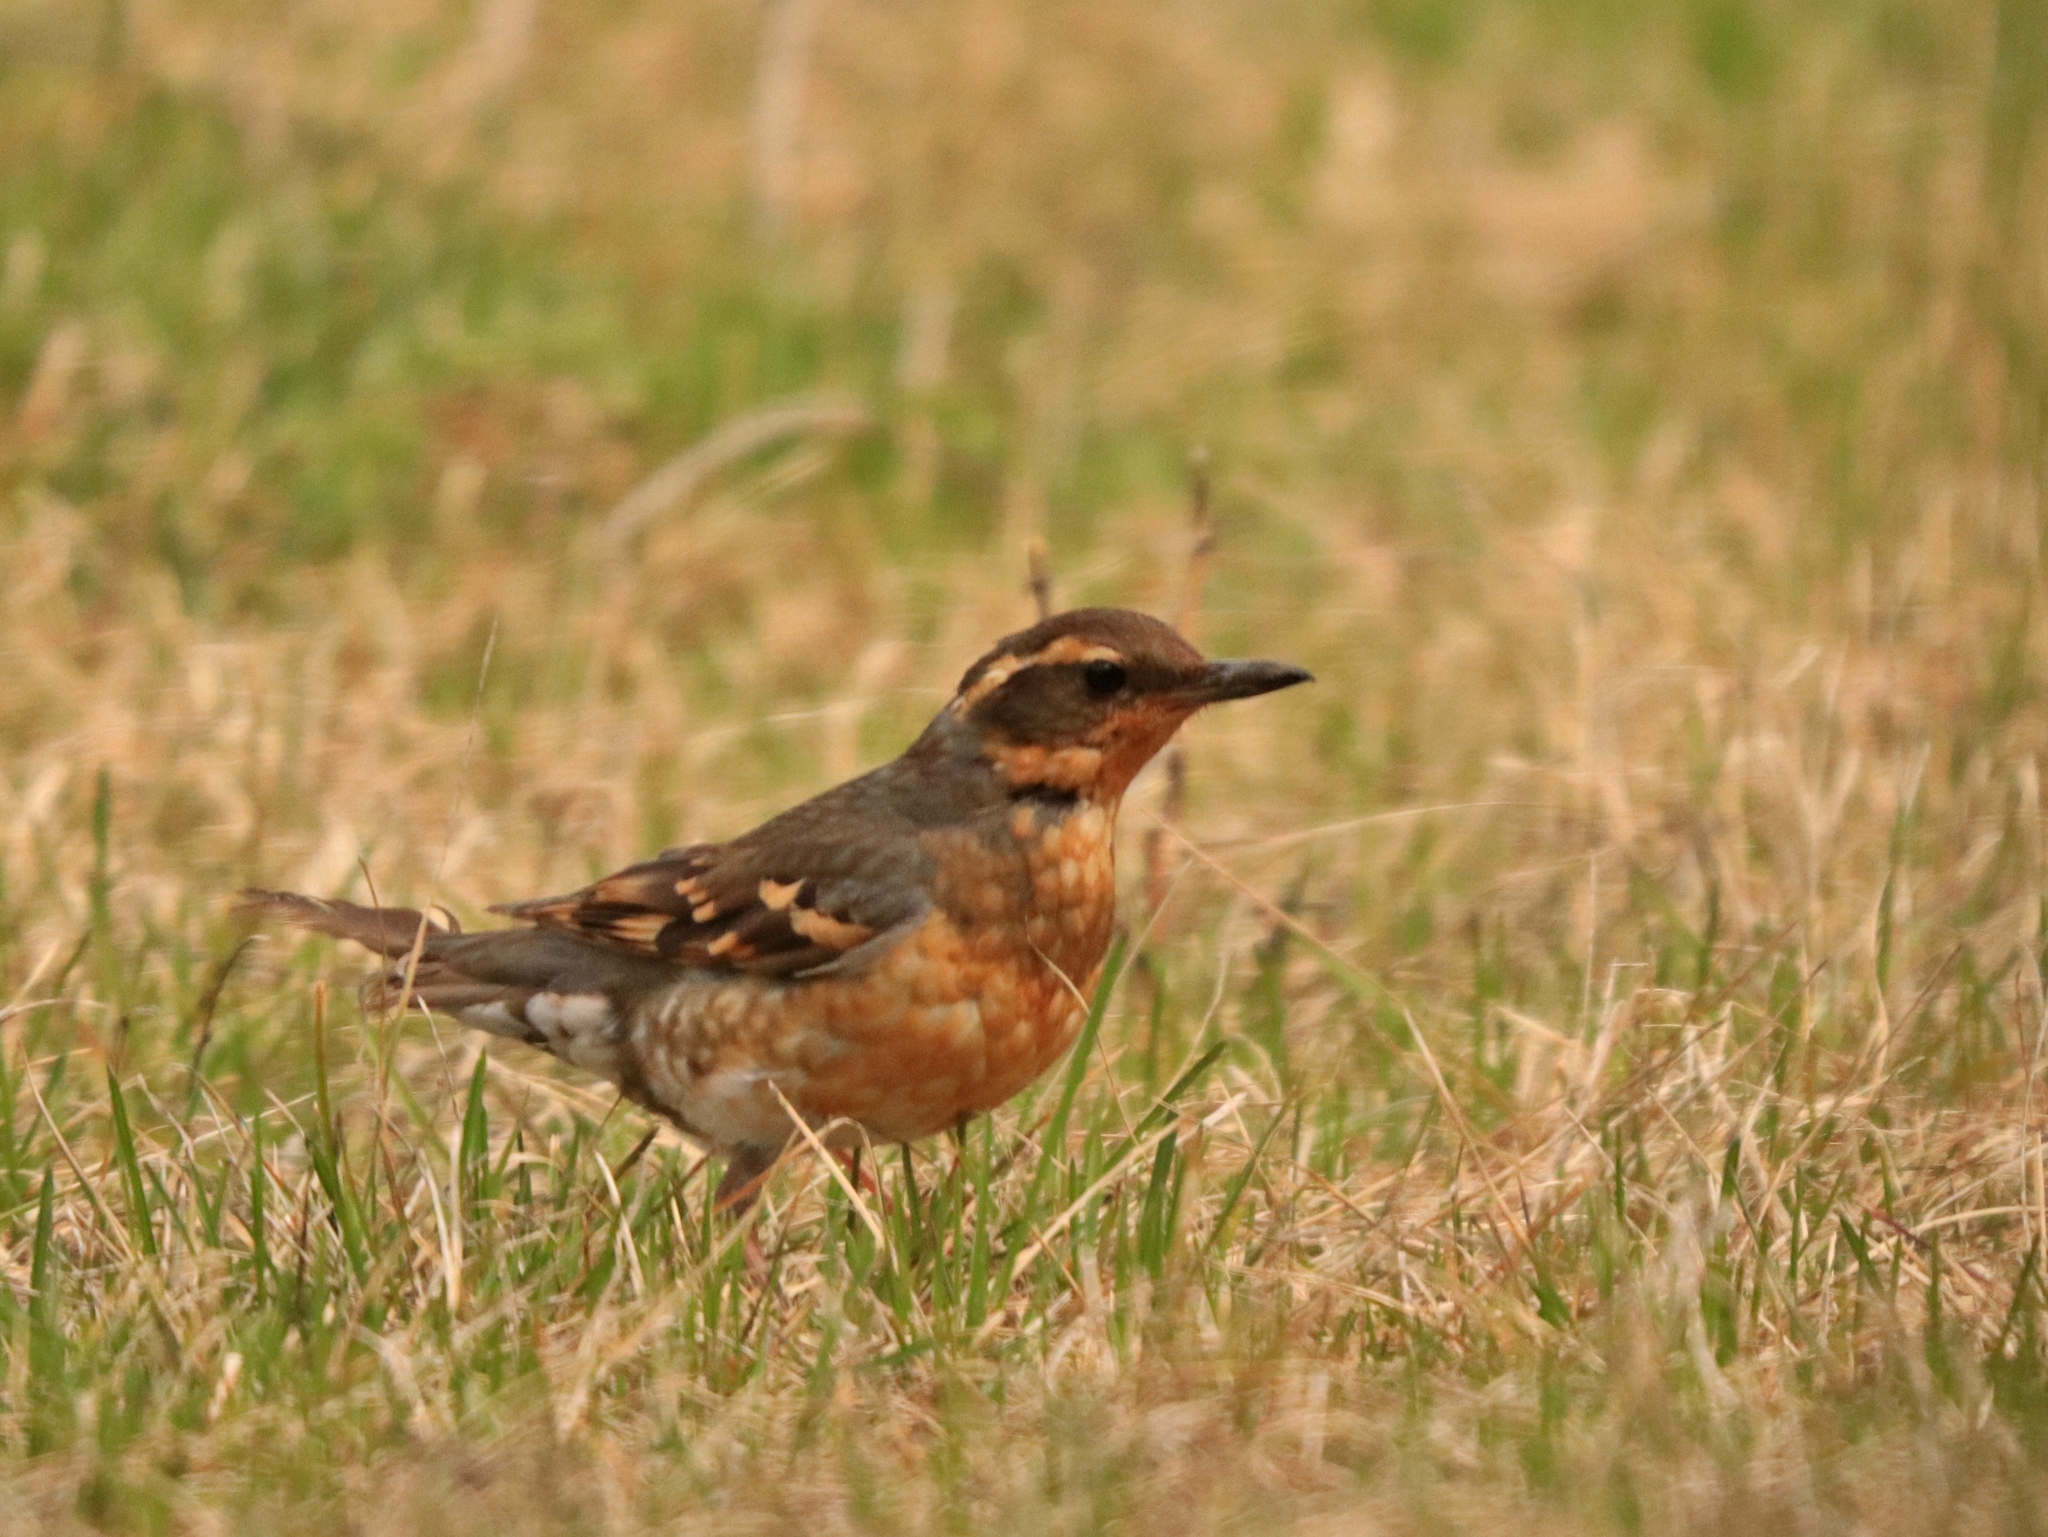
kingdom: Animalia
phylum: Chordata
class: Aves
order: Passeriformes
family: Turdidae
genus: Ixoreus
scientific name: Ixoreus naevius
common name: Varied thrush
